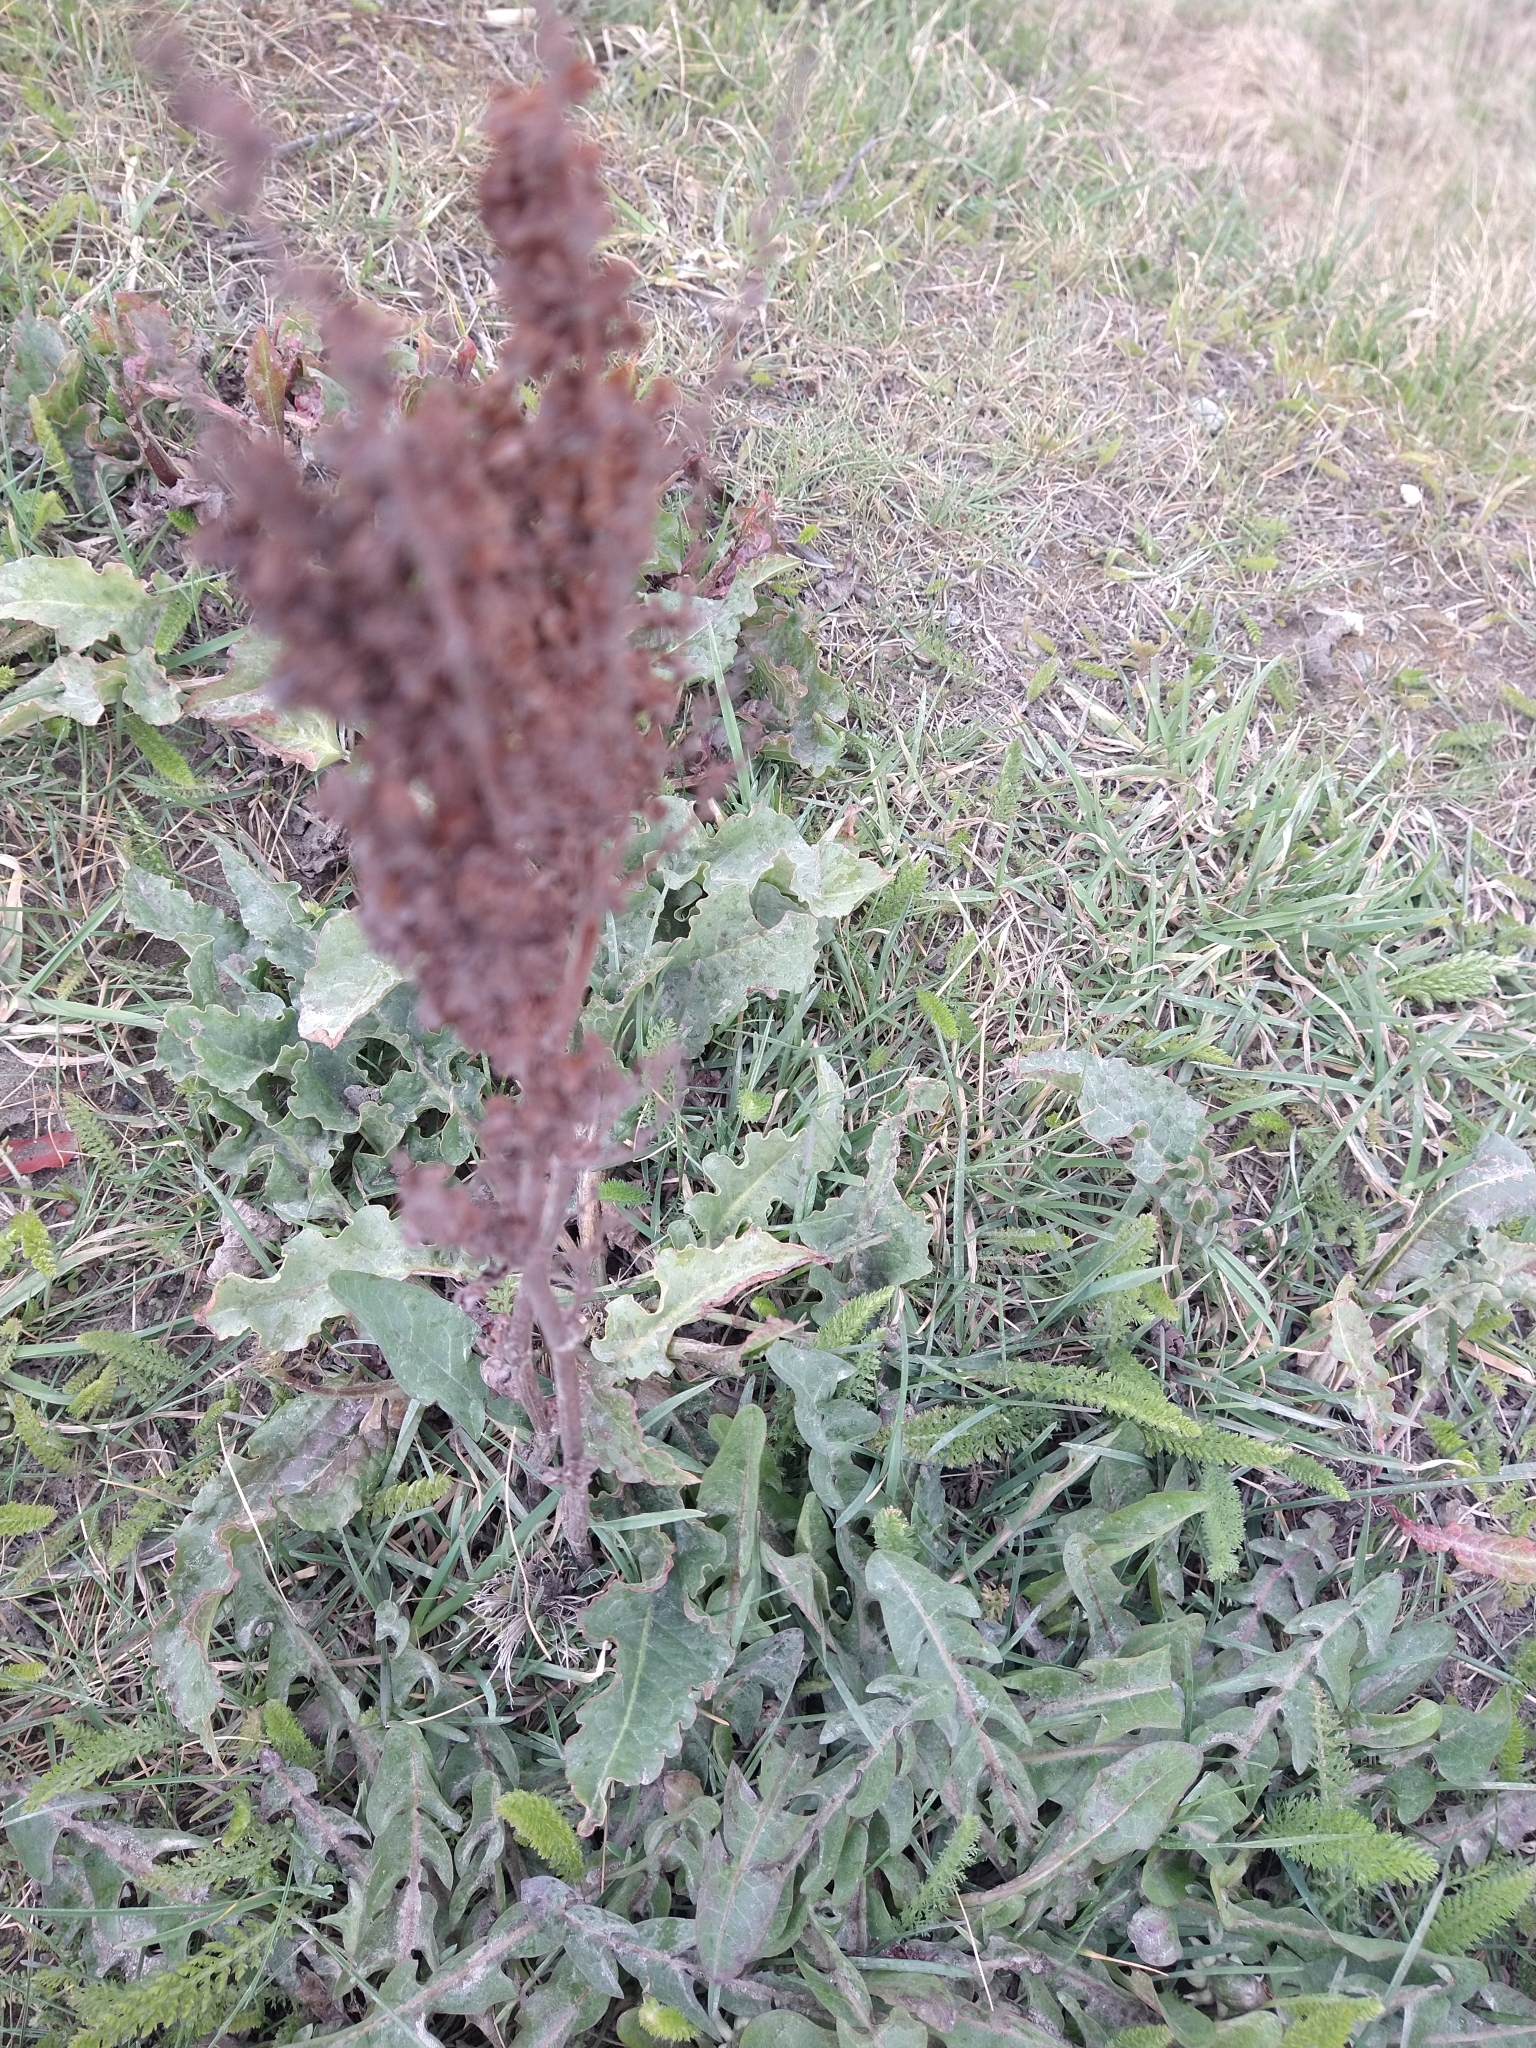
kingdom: Plantae
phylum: Tracheophyta
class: Magnoliopsida
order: Caryophyllales
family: Polygonaceae
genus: Rumex
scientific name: Rumex crispus
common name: Curled dock
